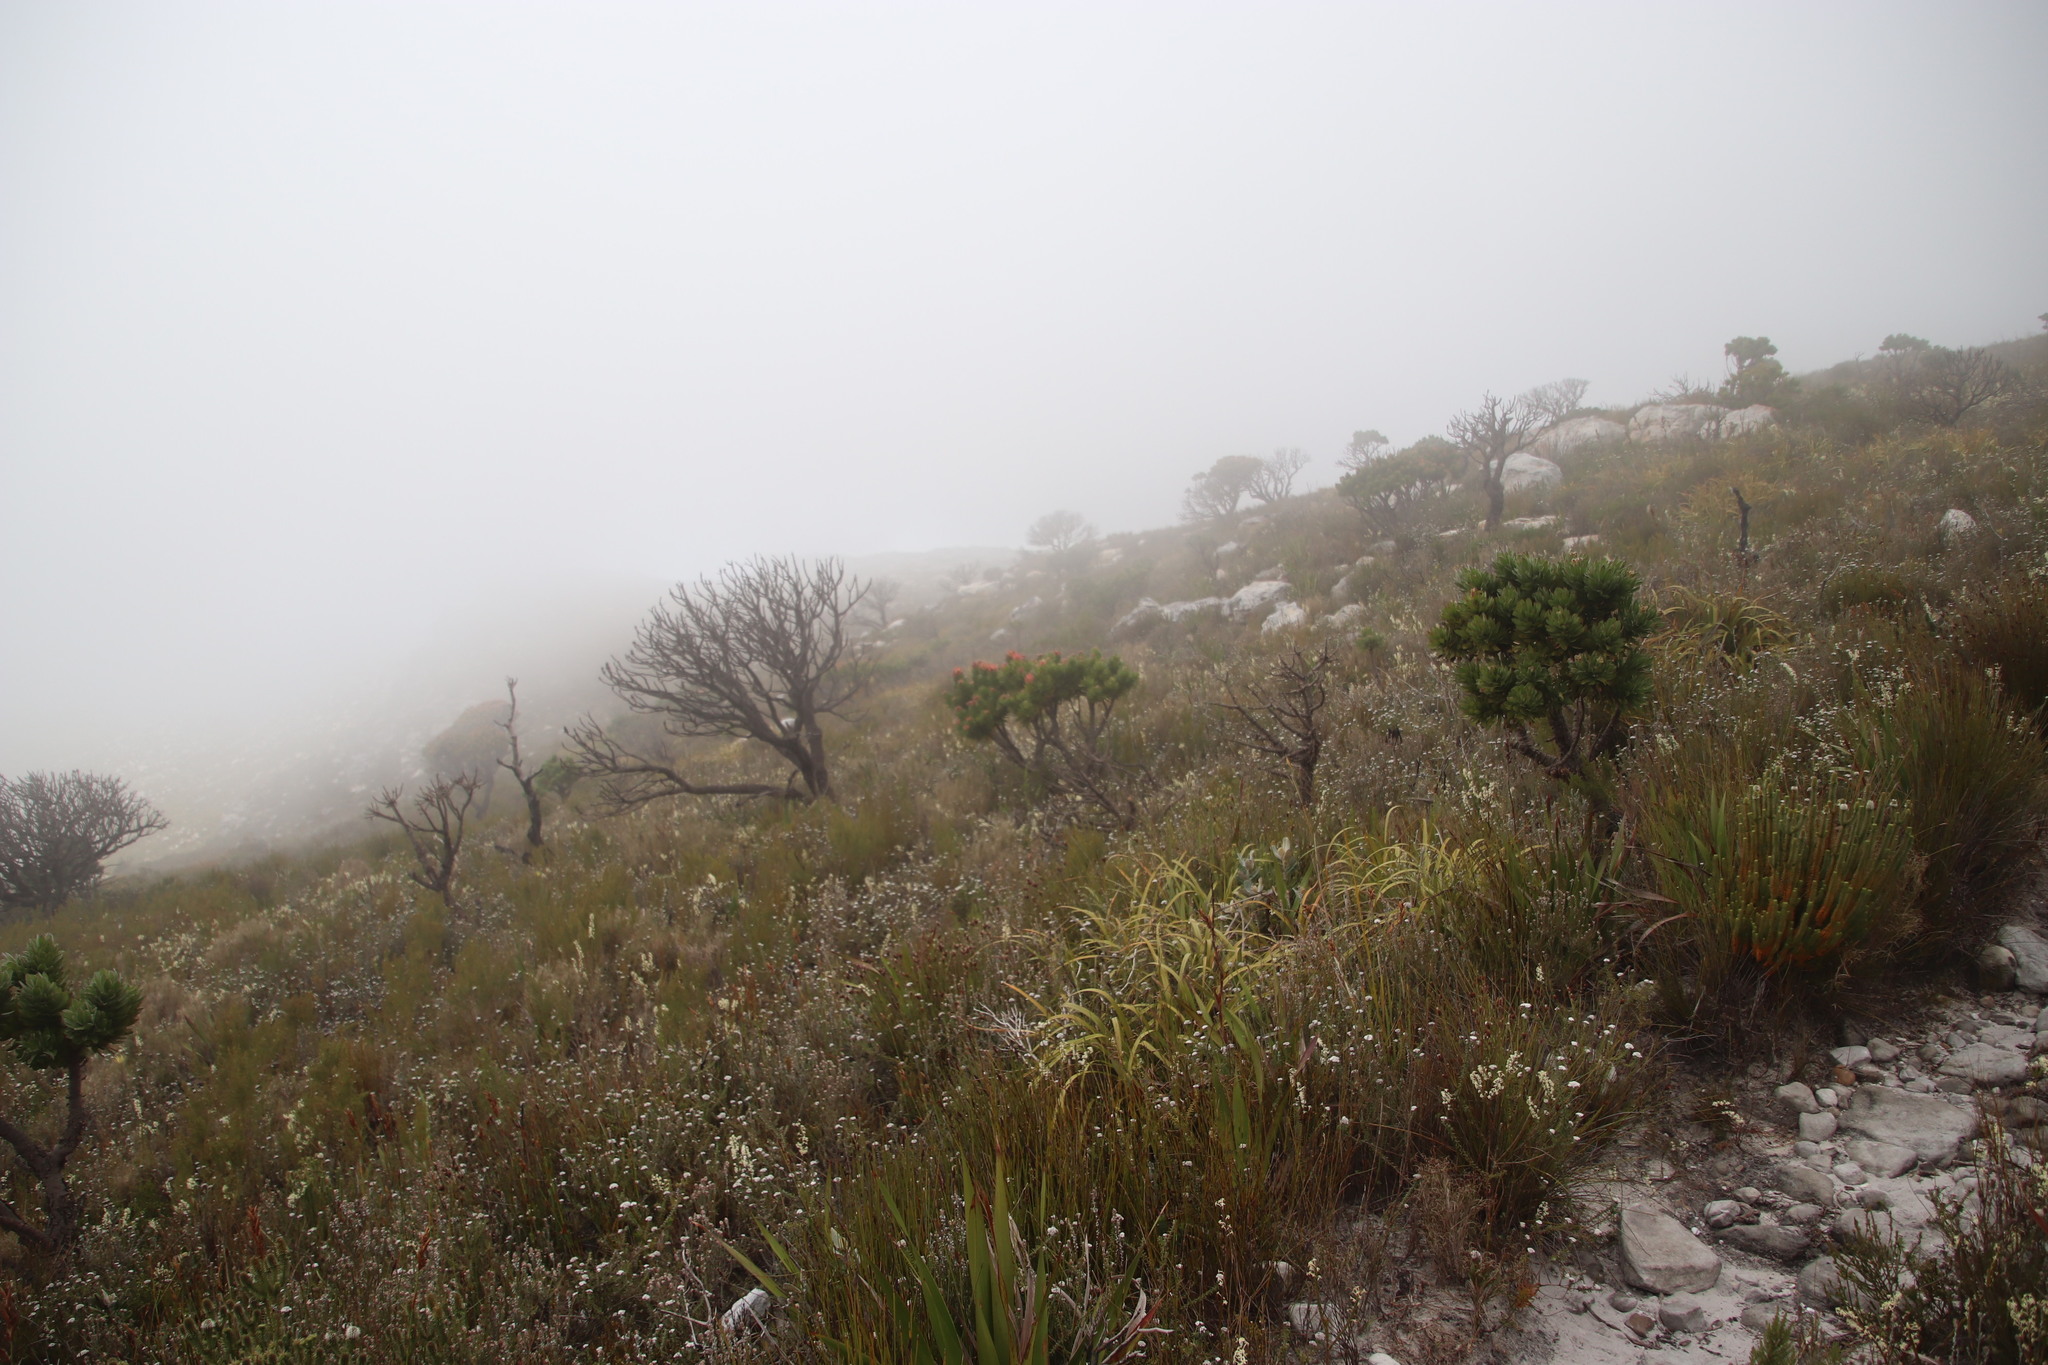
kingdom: Plantae
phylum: Tracheophyta
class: Magnoliopsida
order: Proteales
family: Proteaceae
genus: Mimetes
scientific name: Mimetes fimbriifolius
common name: Fringed bottlebrush
